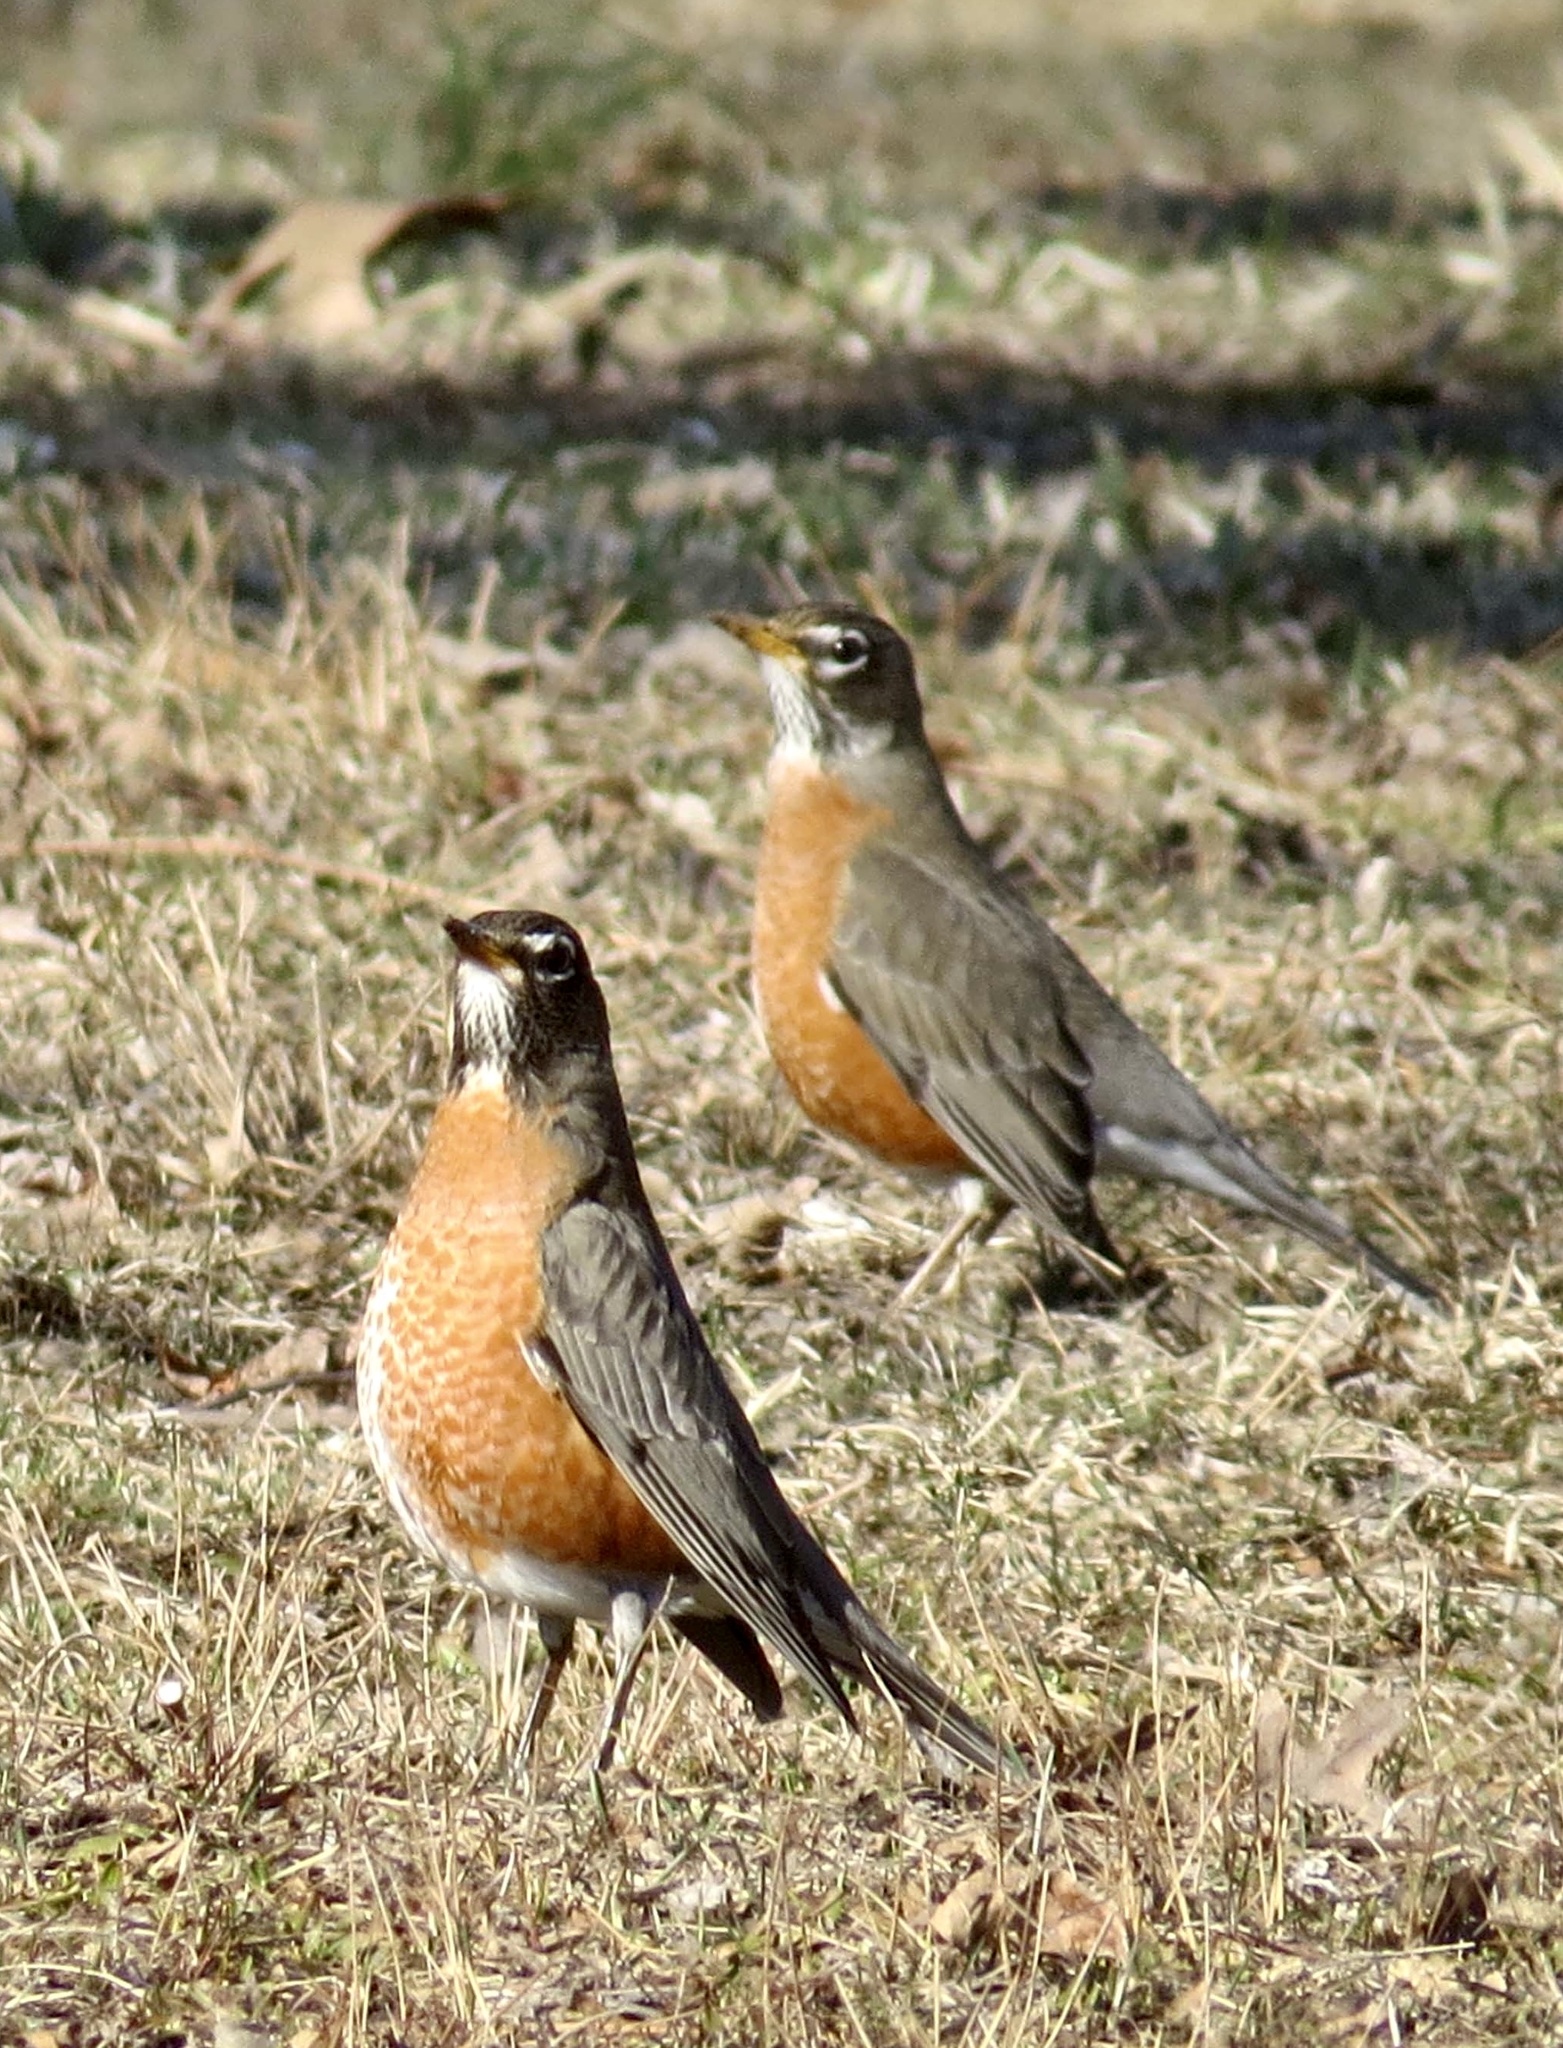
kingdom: Animalia
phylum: Chordata
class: Aves
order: Passeriformes
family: Turdidae
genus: Turdus
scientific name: Turdus migratorius
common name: American robin
